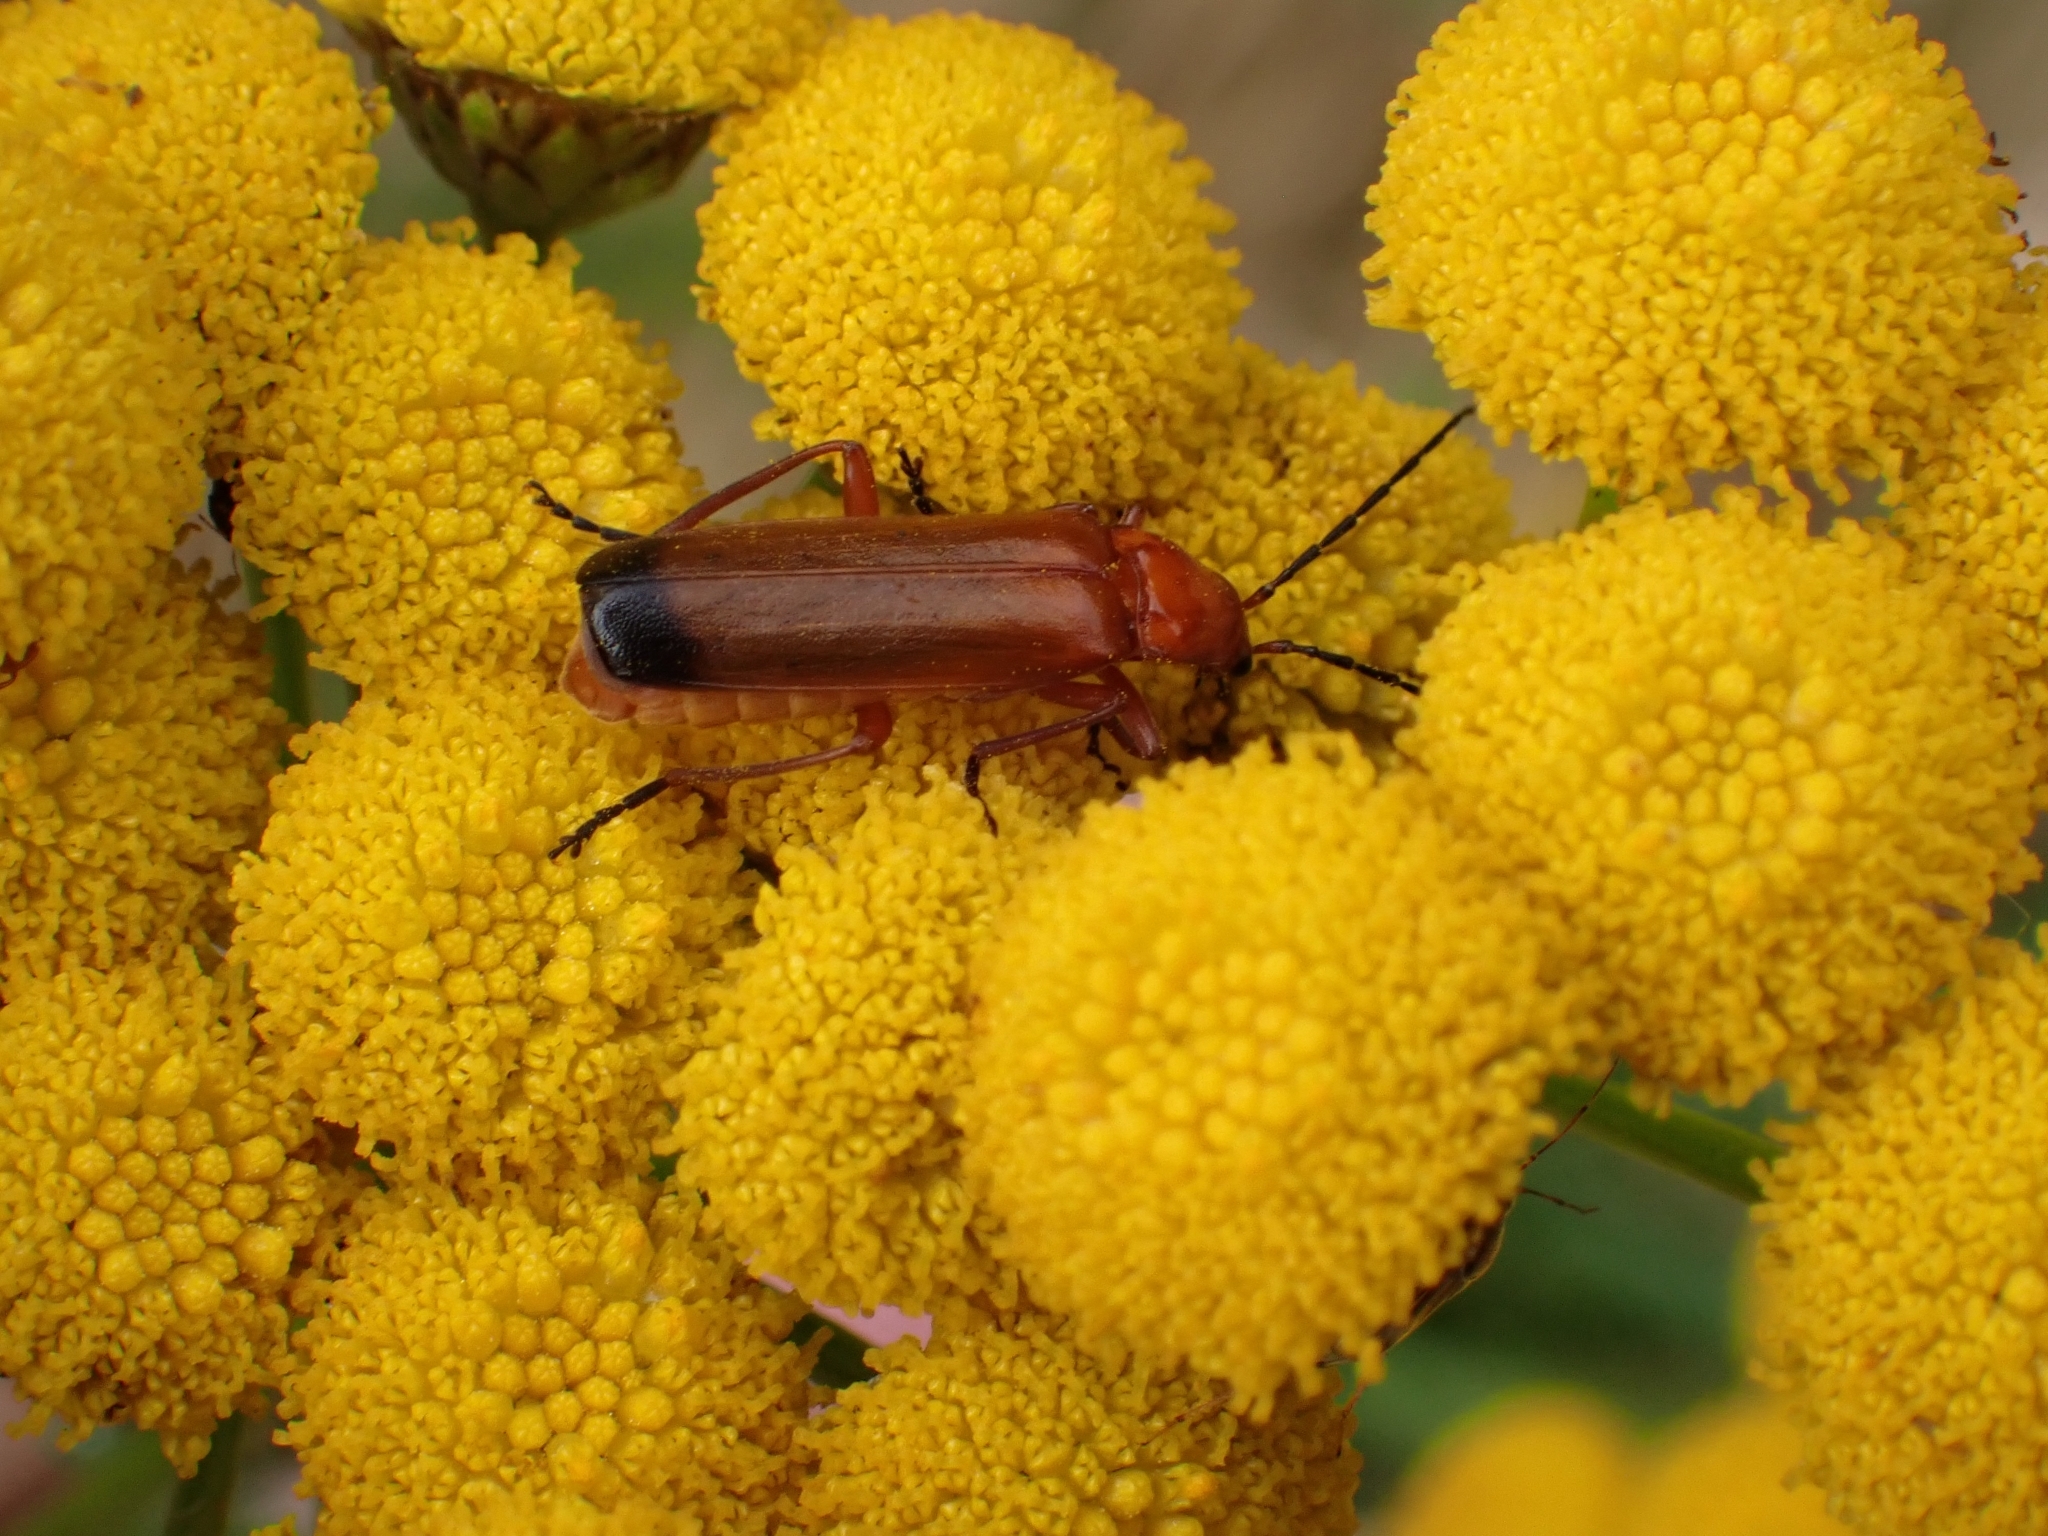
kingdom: Animalia
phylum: Arthropoda
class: Insecta
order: Coleoptera
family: Cantharidae
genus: Rhagonycha
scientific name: Rhagonycha fulva
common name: Common red soldier beetle
